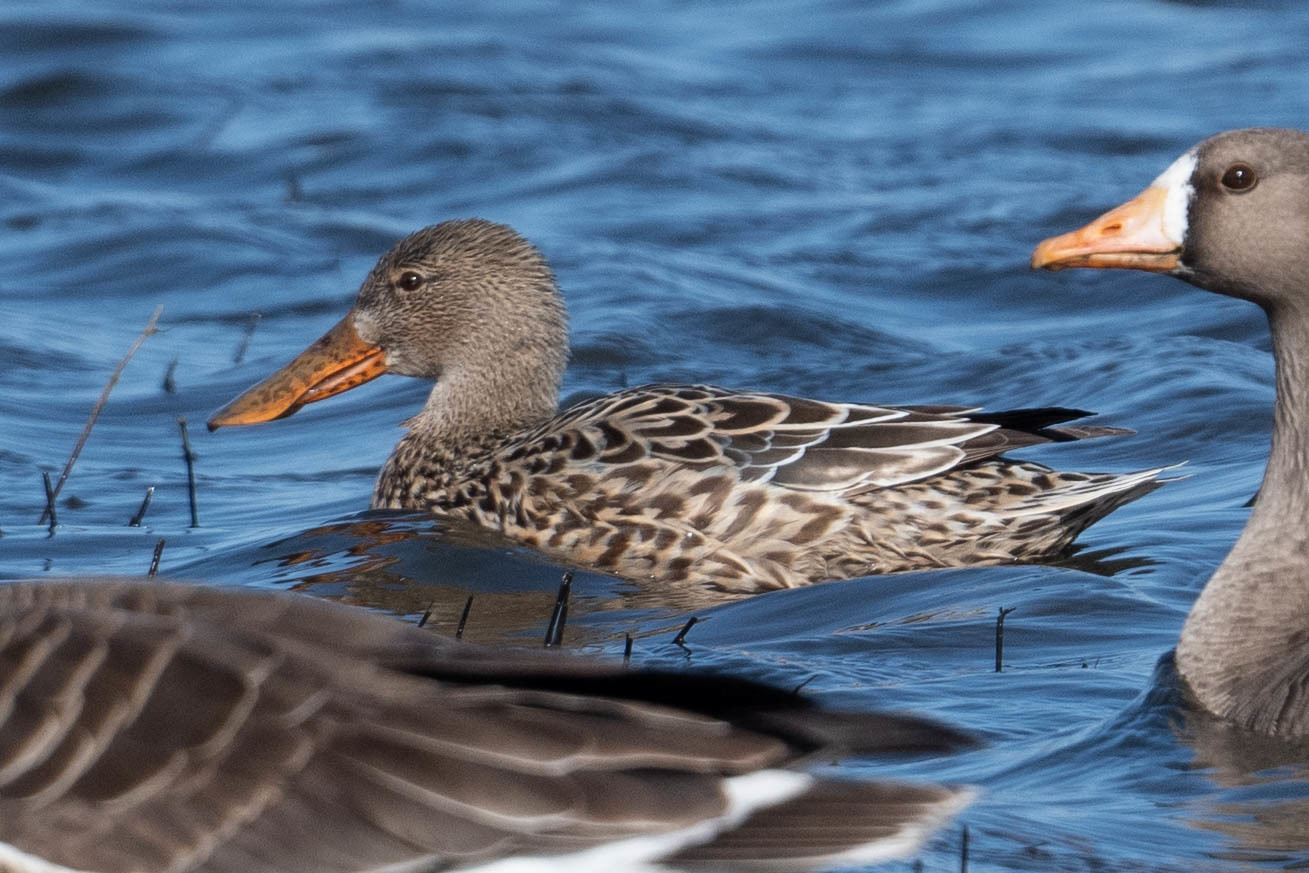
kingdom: Animalia
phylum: Chordata
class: Aves
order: Anseriformes
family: Anatidae
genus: Spatula
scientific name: Spatula clypeata
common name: Northern shoveler
